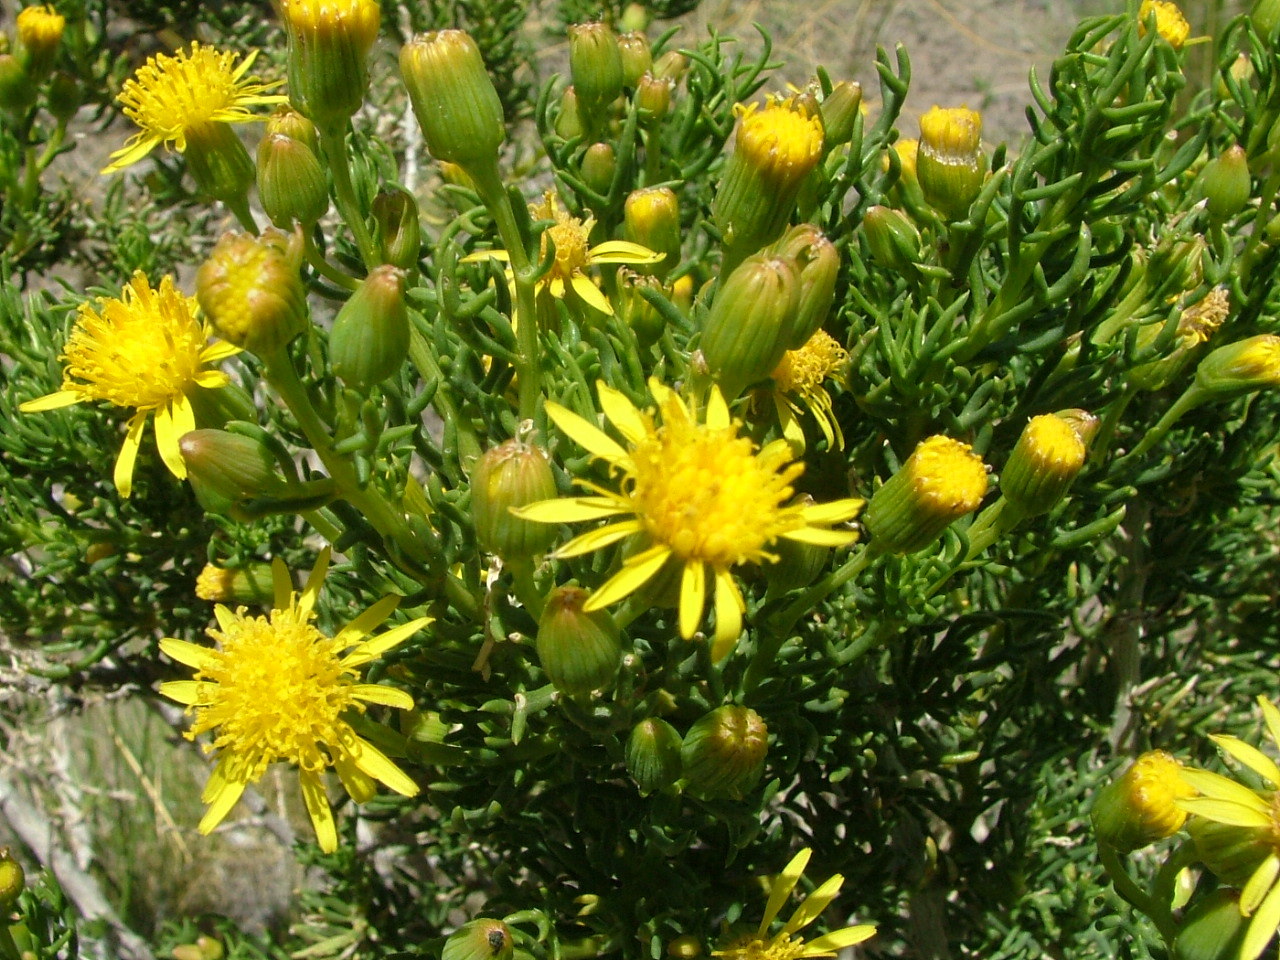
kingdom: Plantae
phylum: Tracheophyta
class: Magnoliopsida
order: Asterales
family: Asteraceae
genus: Senecio
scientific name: Senecio subulatus
